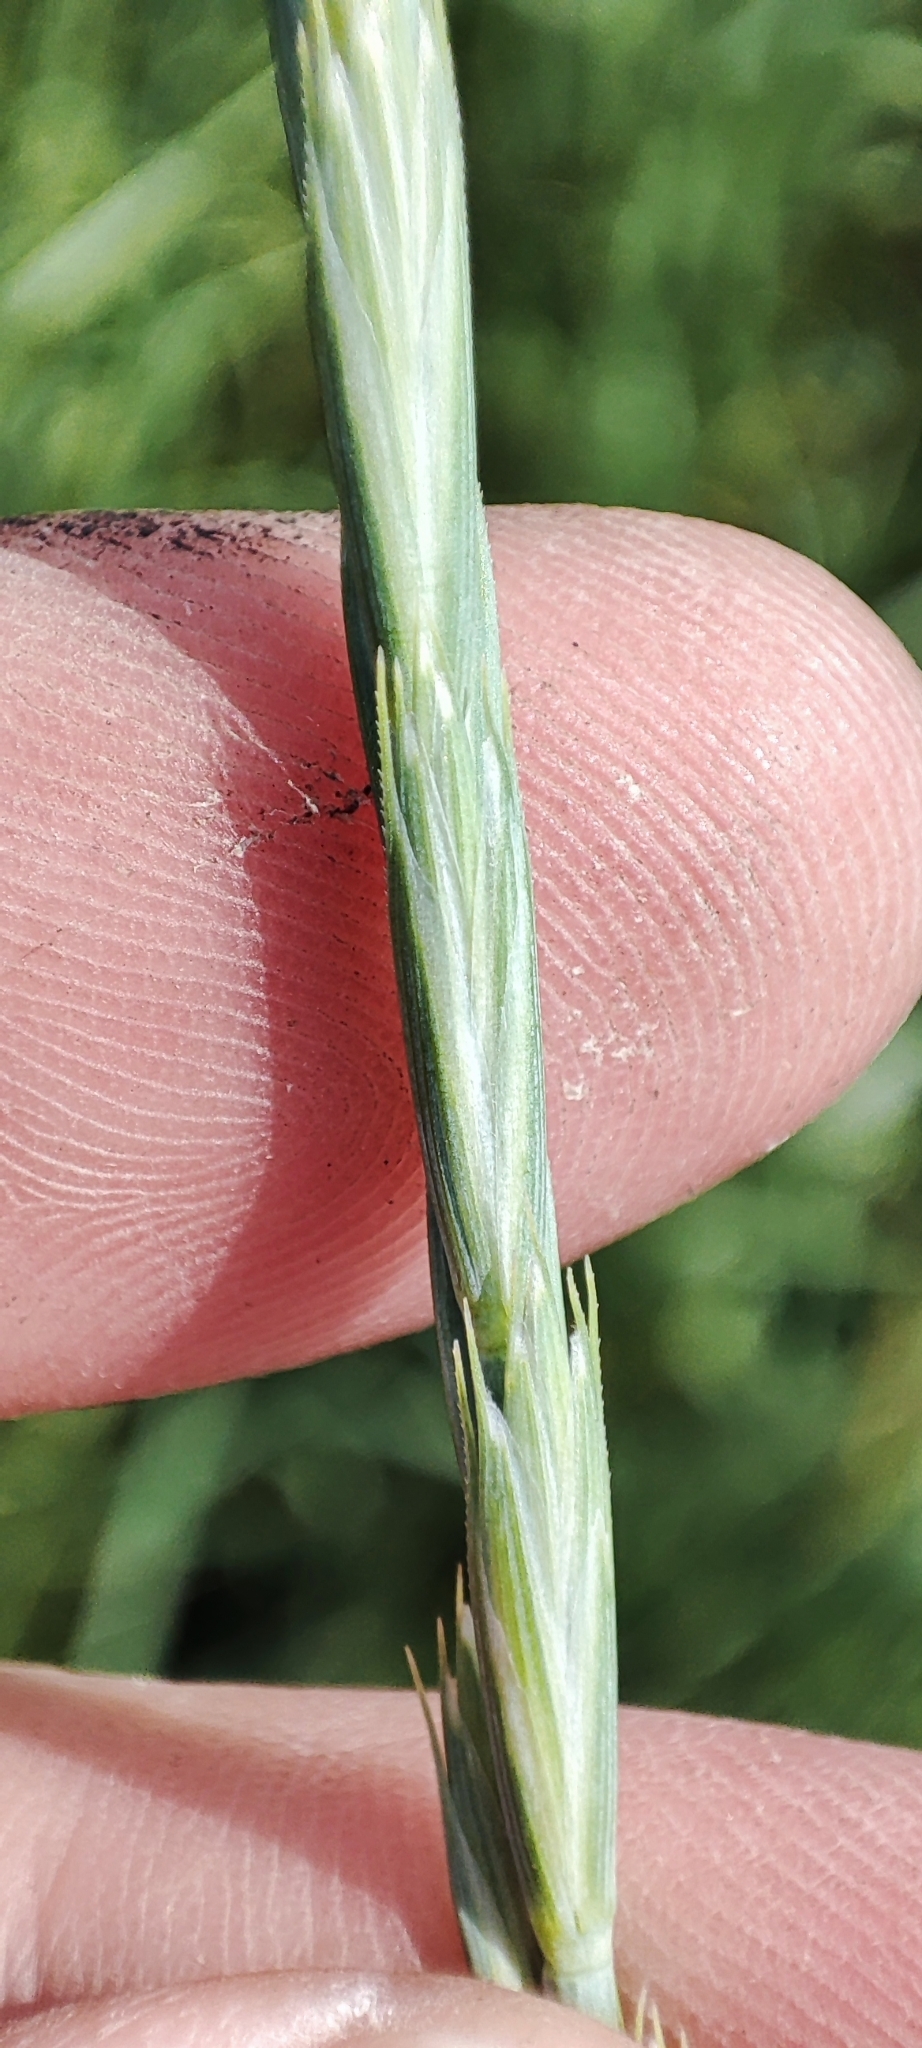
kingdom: Plantae
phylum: Tracheophyta
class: Liliopsida
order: Poales
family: Poaceae
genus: Elymus
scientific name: Elymus repens
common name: Quackgrass
